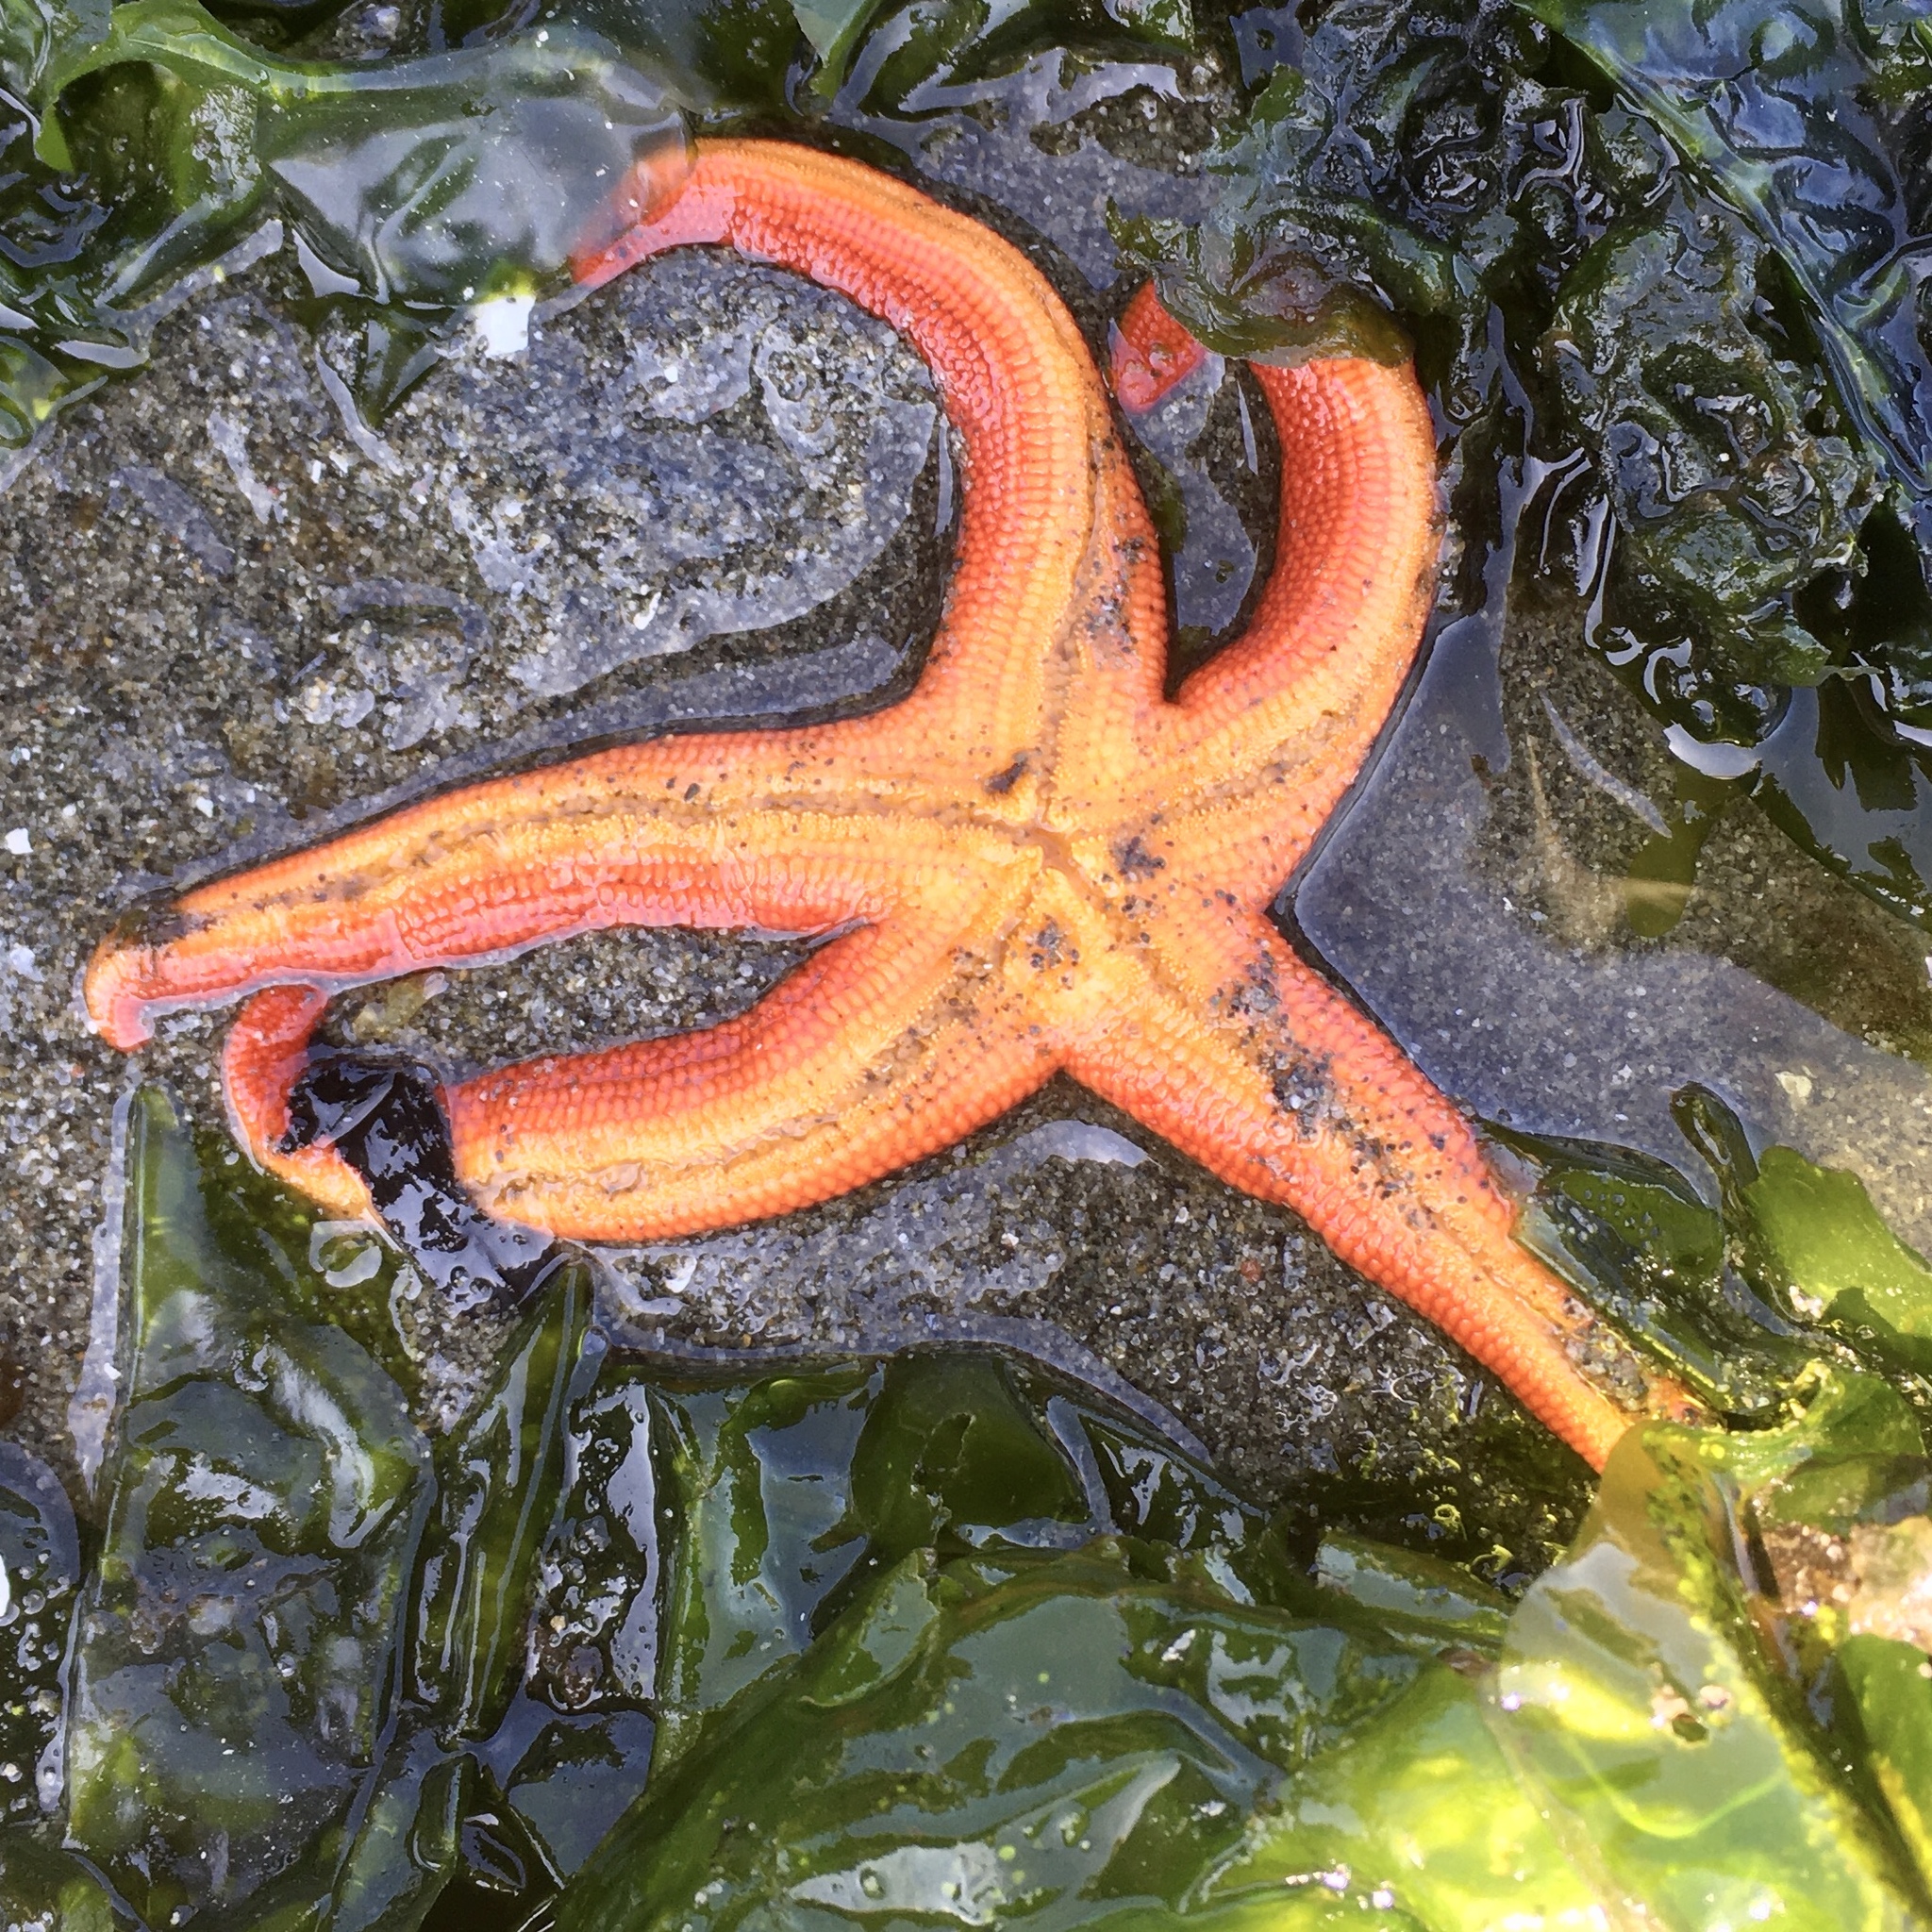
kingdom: Animalia
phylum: Echinodermata
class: Asteroidea
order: Spinulosida
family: Echinasteridae
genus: Henricia
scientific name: Henricia leviuscula
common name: Pacific blood star
